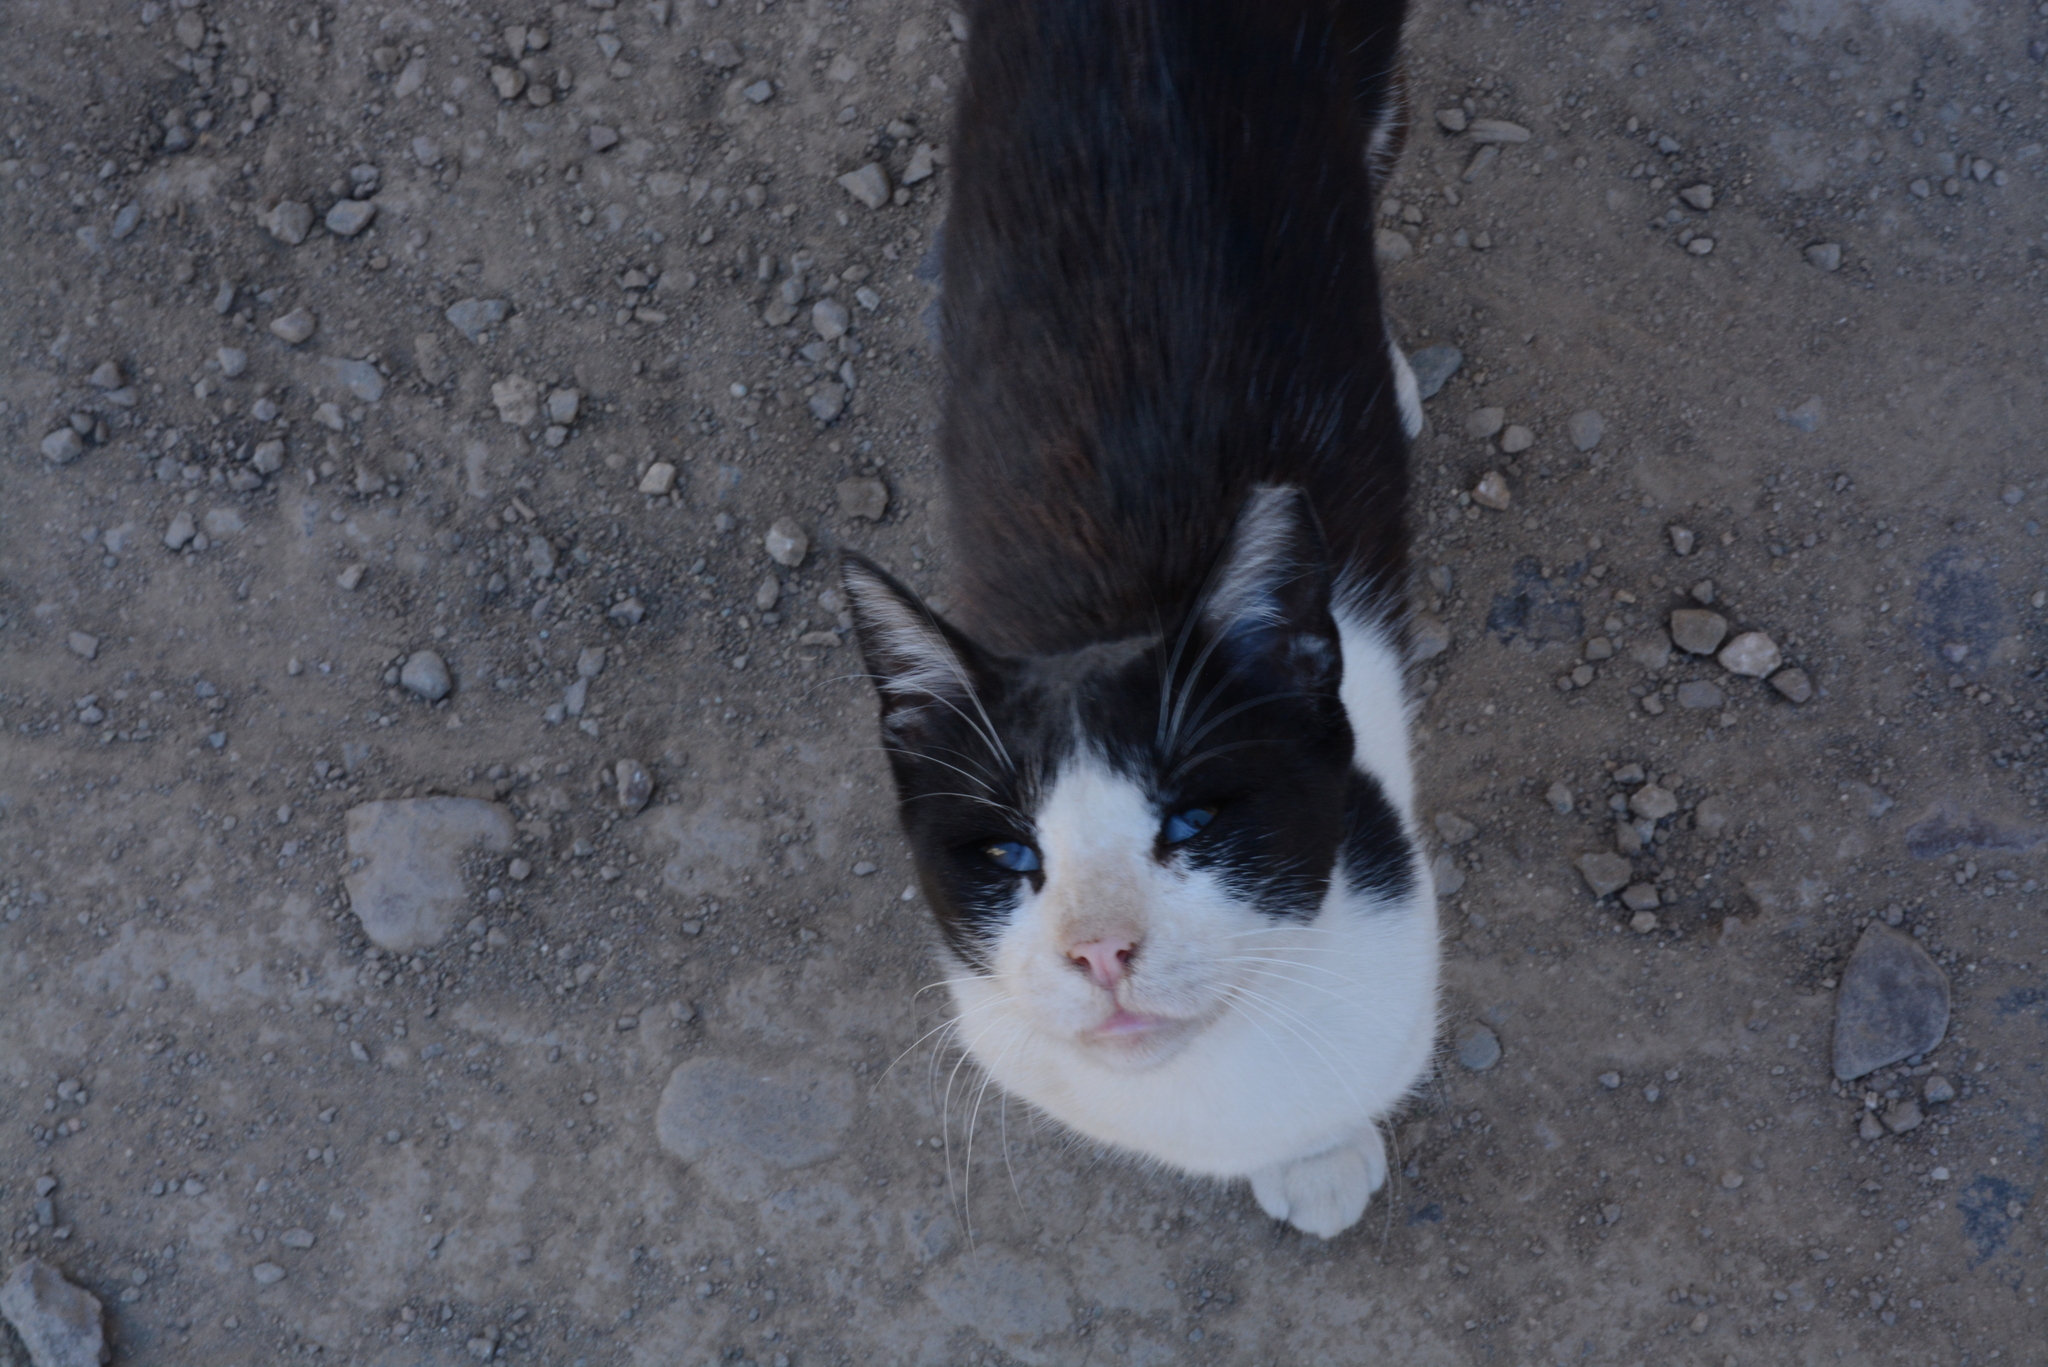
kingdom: Animalia
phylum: Chordata
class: Mammalia
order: Carnivora
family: Felidae
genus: Felis
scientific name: Felis catus
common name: Domestic cat
